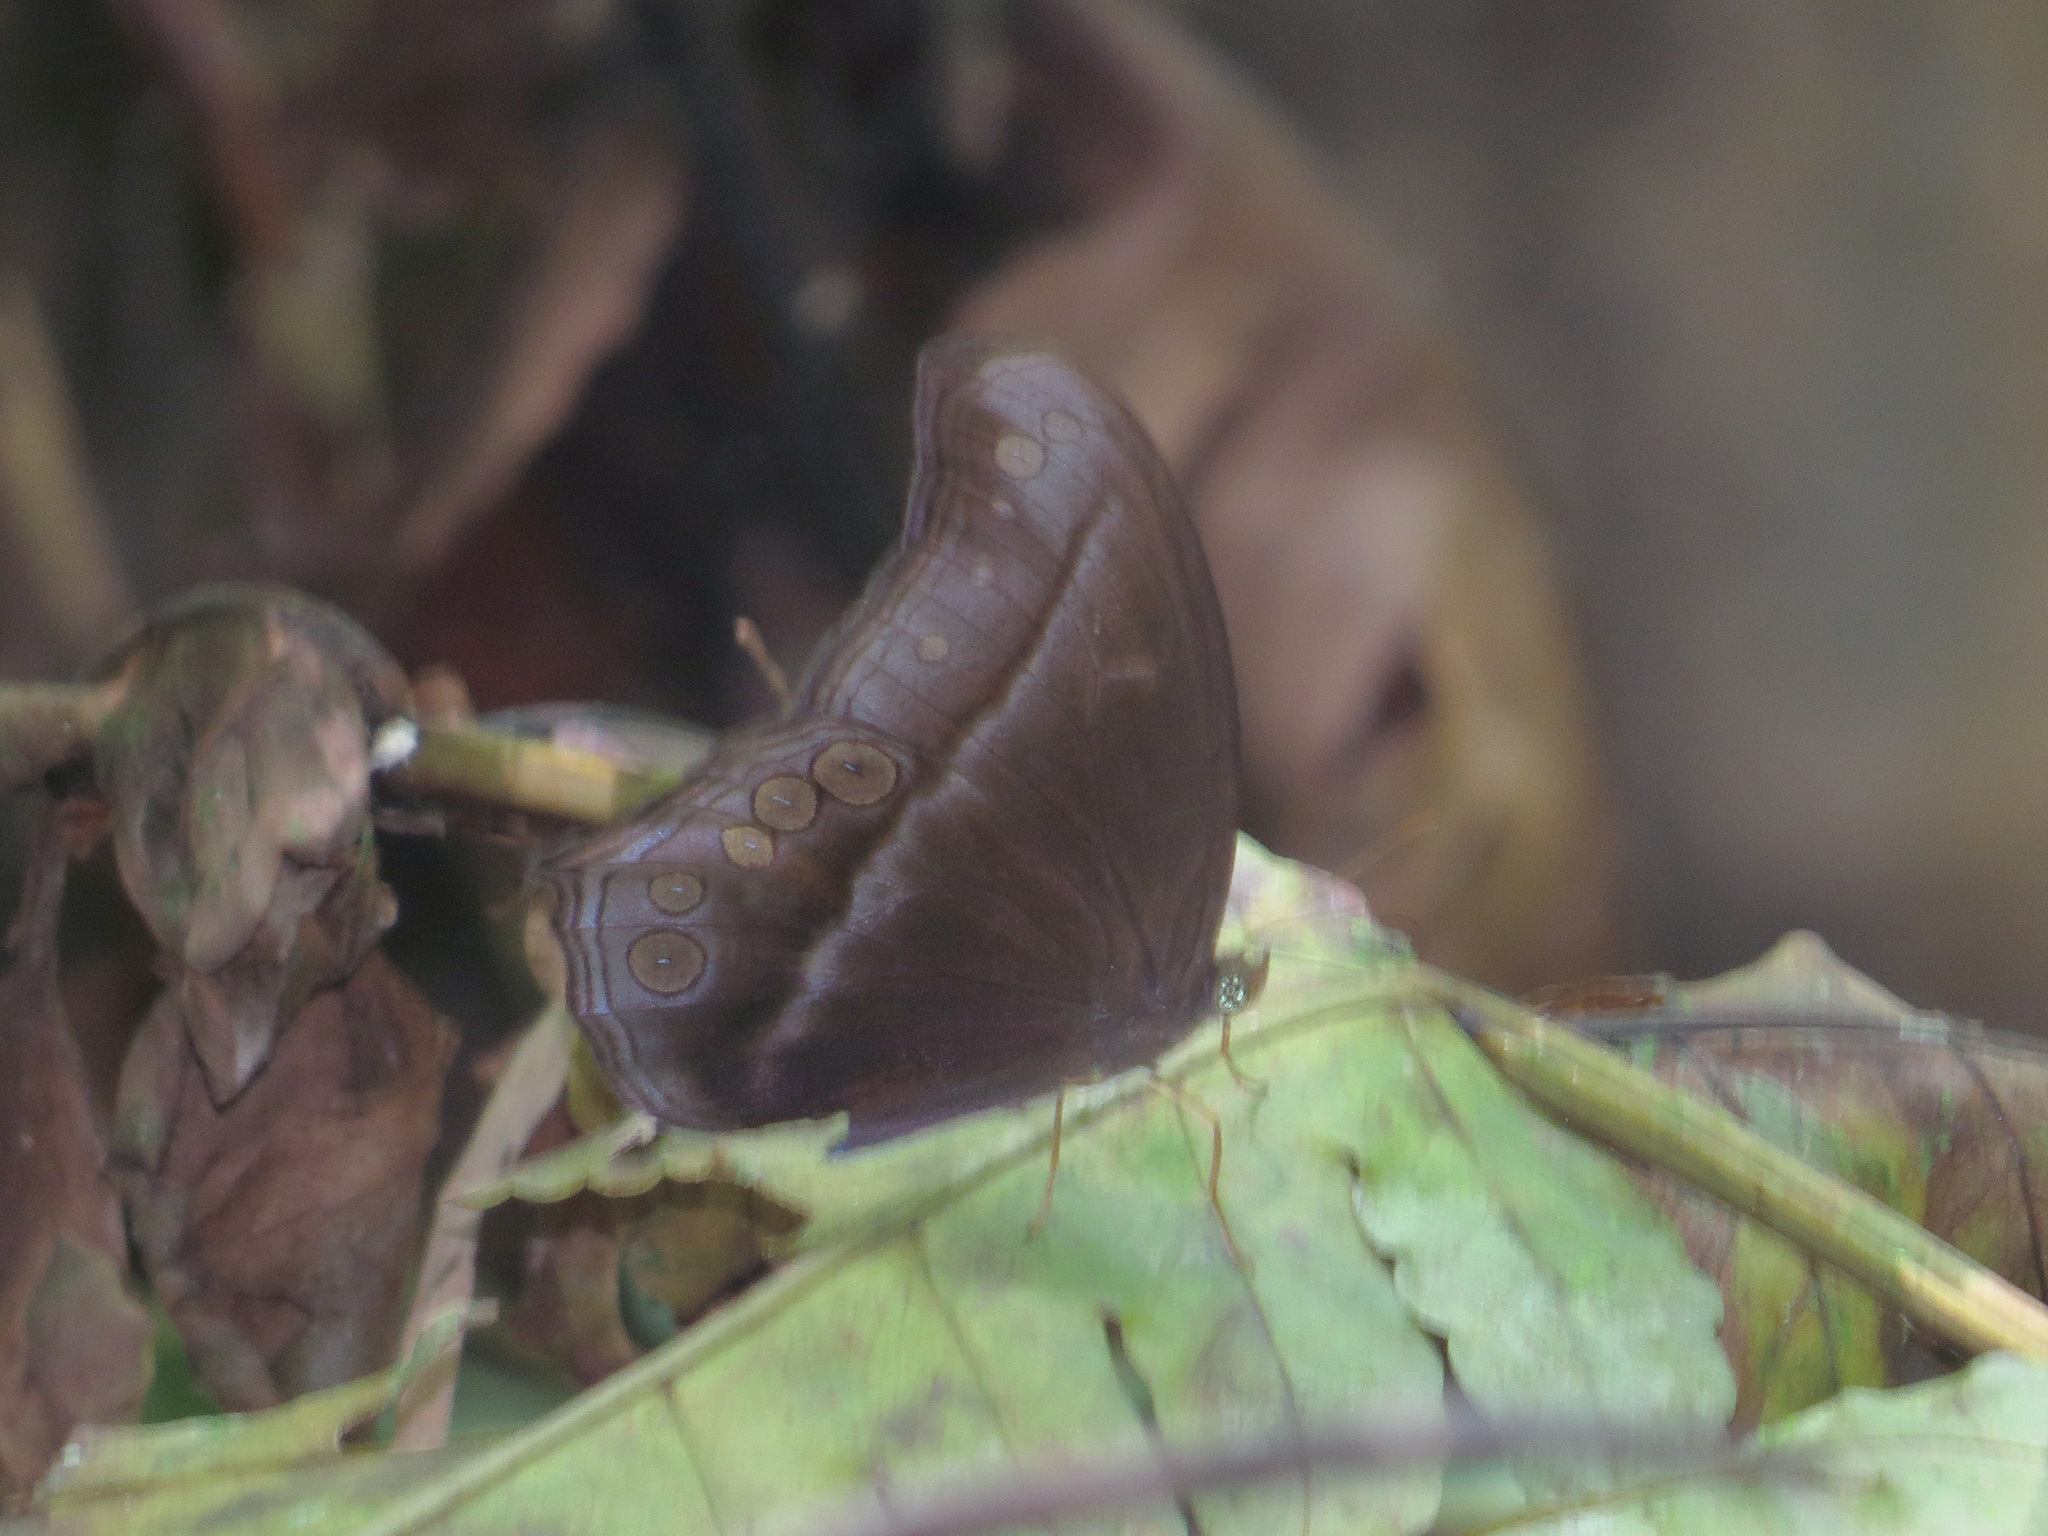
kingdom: Animalia
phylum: Arthropoda
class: Insecta
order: Lepidoptera
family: Nymphalidae
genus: Coelites
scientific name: Coelites epiminthia
